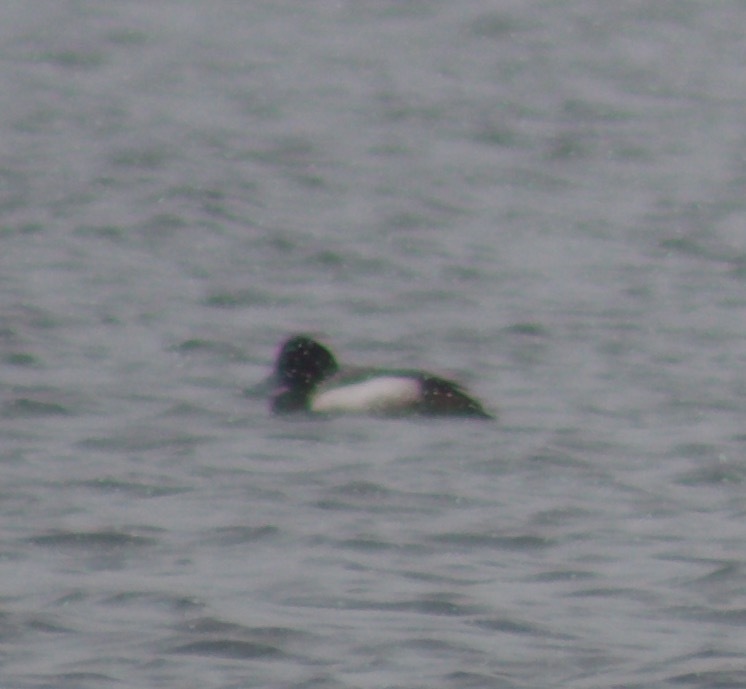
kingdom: Animalia
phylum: Chordata
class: Aves
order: Anseriformes
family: Anatidae
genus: Aythya
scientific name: Aythya marila
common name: Greater scaup
